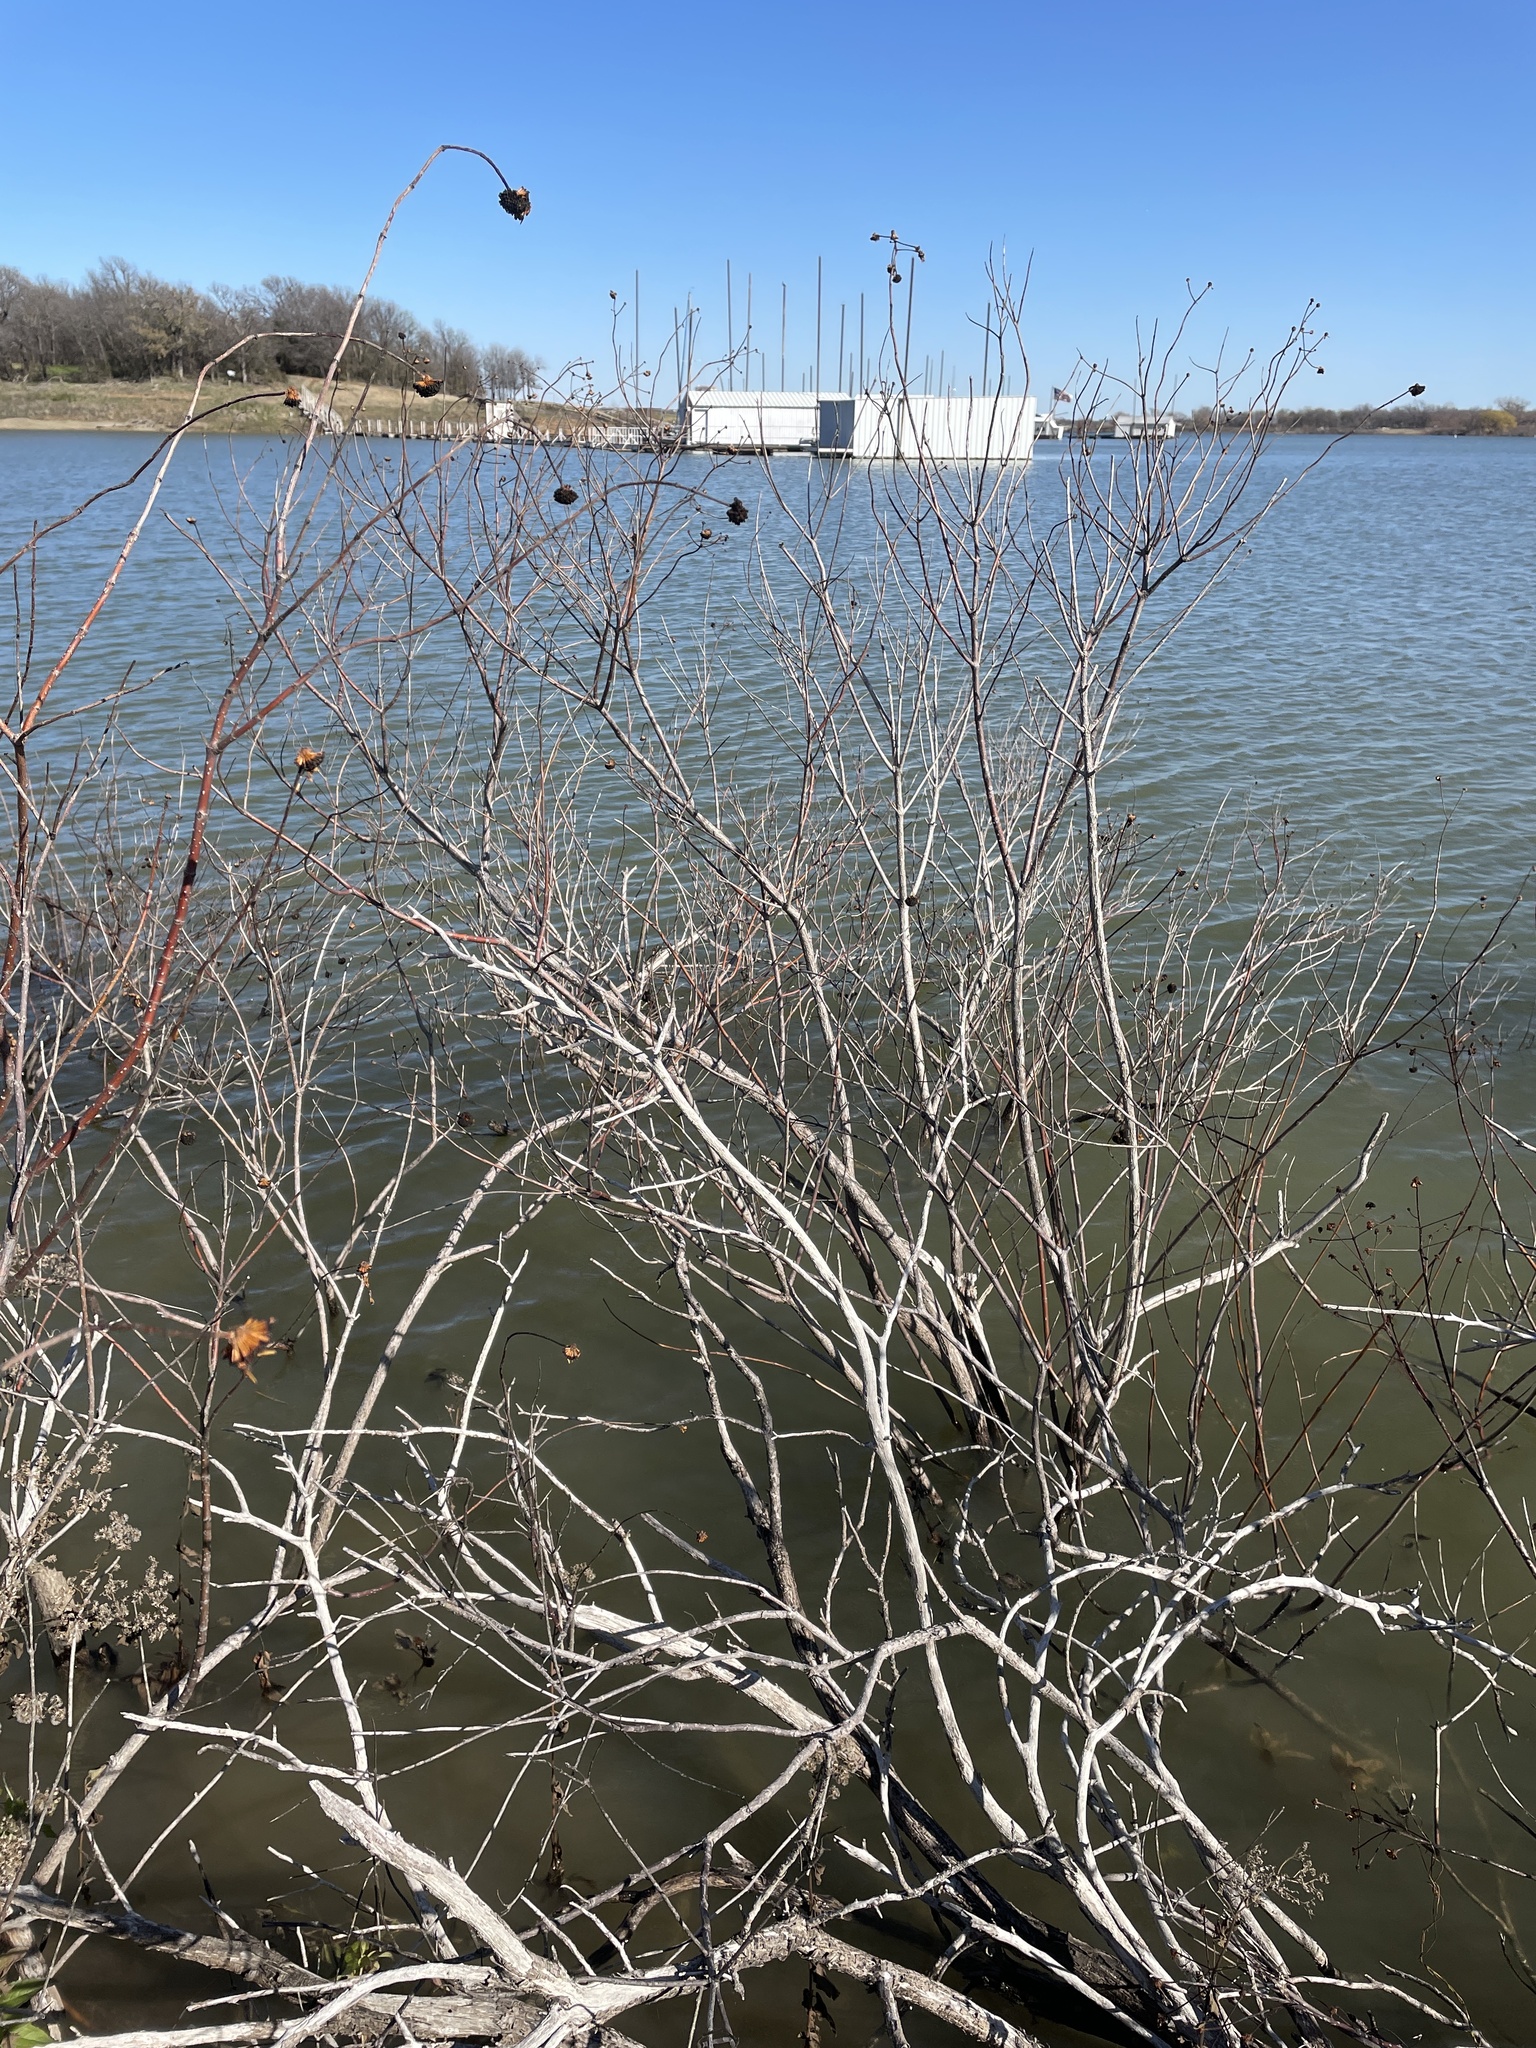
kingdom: Plantae
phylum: Tracheophyta
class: Magnoliopsida
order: Gentianales
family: Rubiaceae
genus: Cephalanthus
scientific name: Cephalanthus occidentalis
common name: Button-willow
